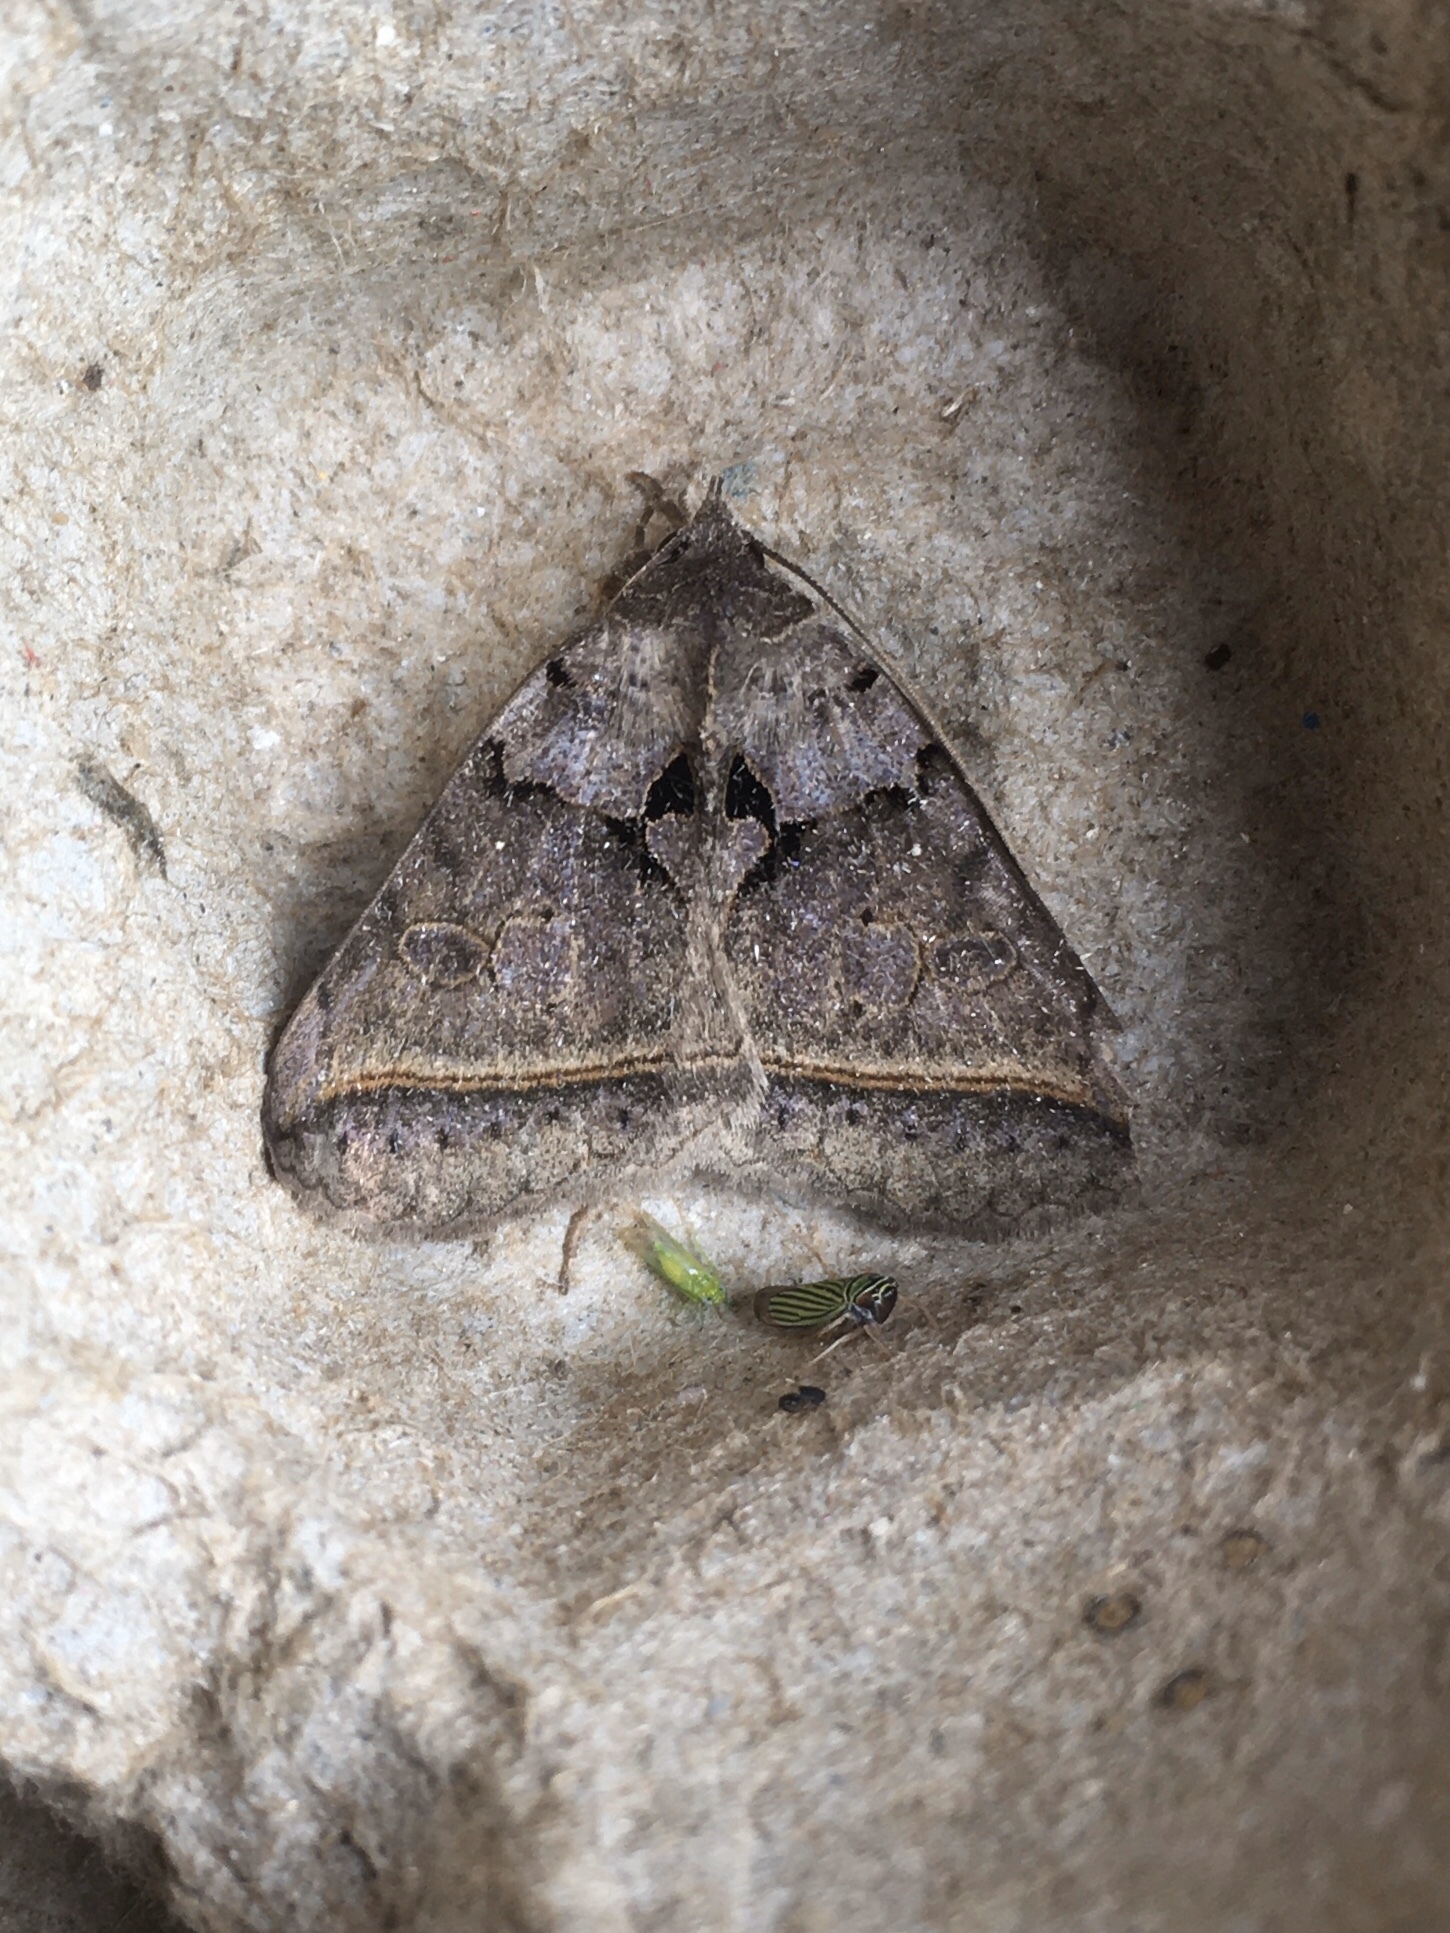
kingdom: Animalia
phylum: Arthropoda
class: Insecta
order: Lepidoptera
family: Erebidae
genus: Celiptera
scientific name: Celiptera frustulum
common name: Black bit moth
